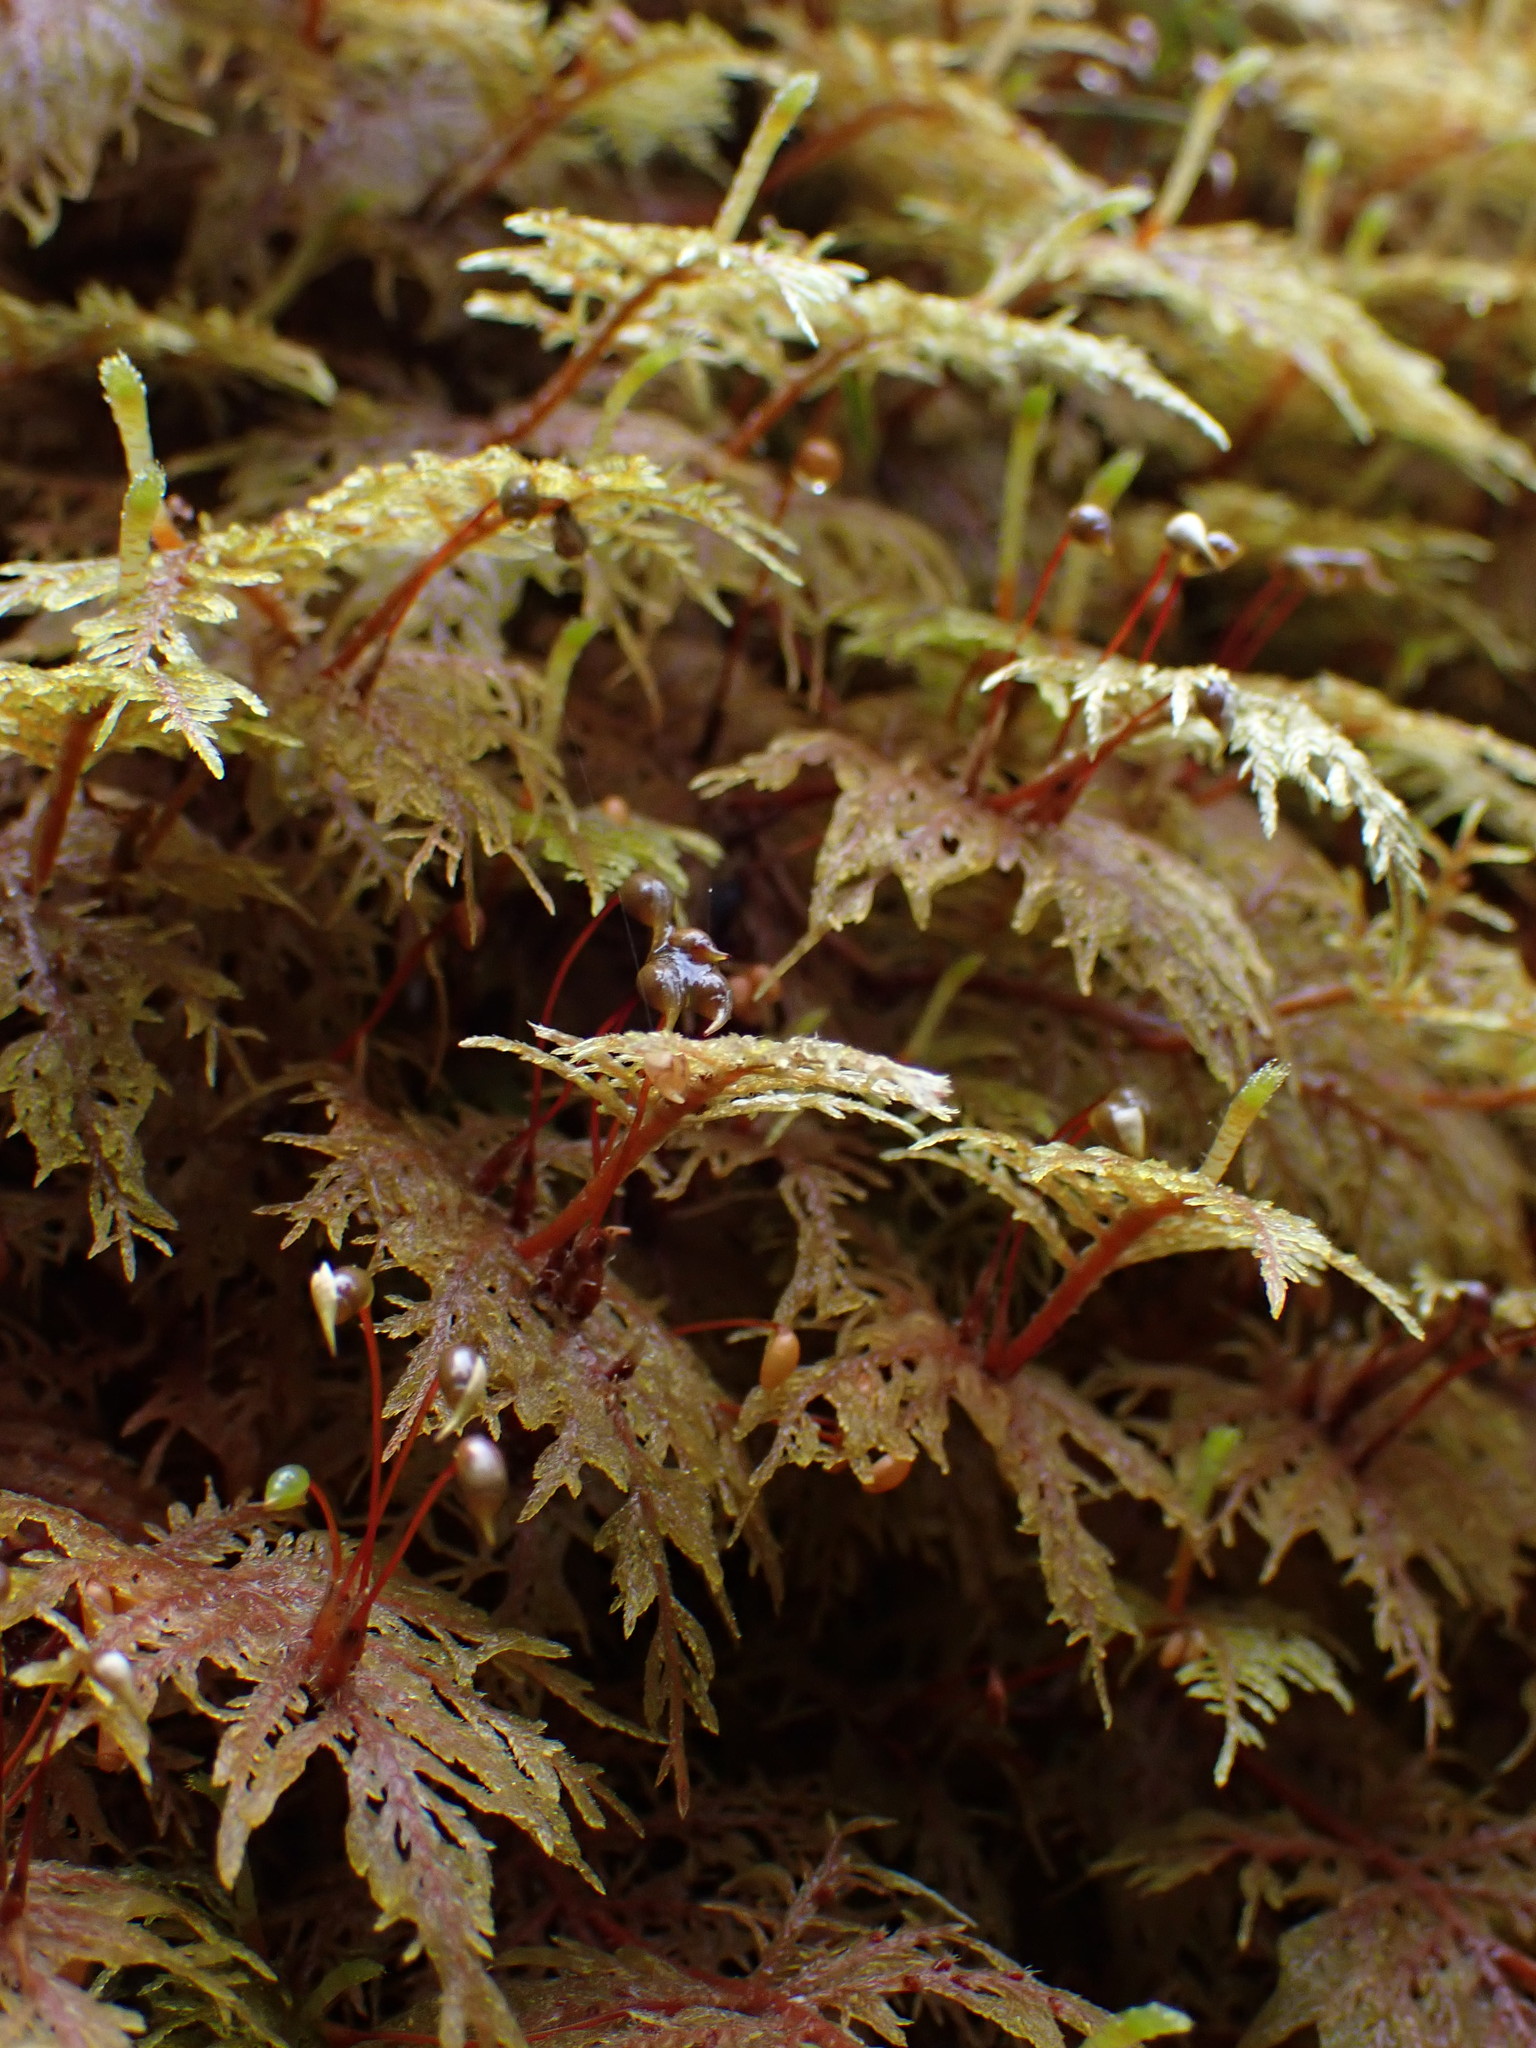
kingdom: Plantae
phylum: Bryophyta
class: Bryopsida
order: Hypnales
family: Hylocomiaceae
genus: Hylocomium
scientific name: Hylocomium splendens
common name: Stairstep moss
